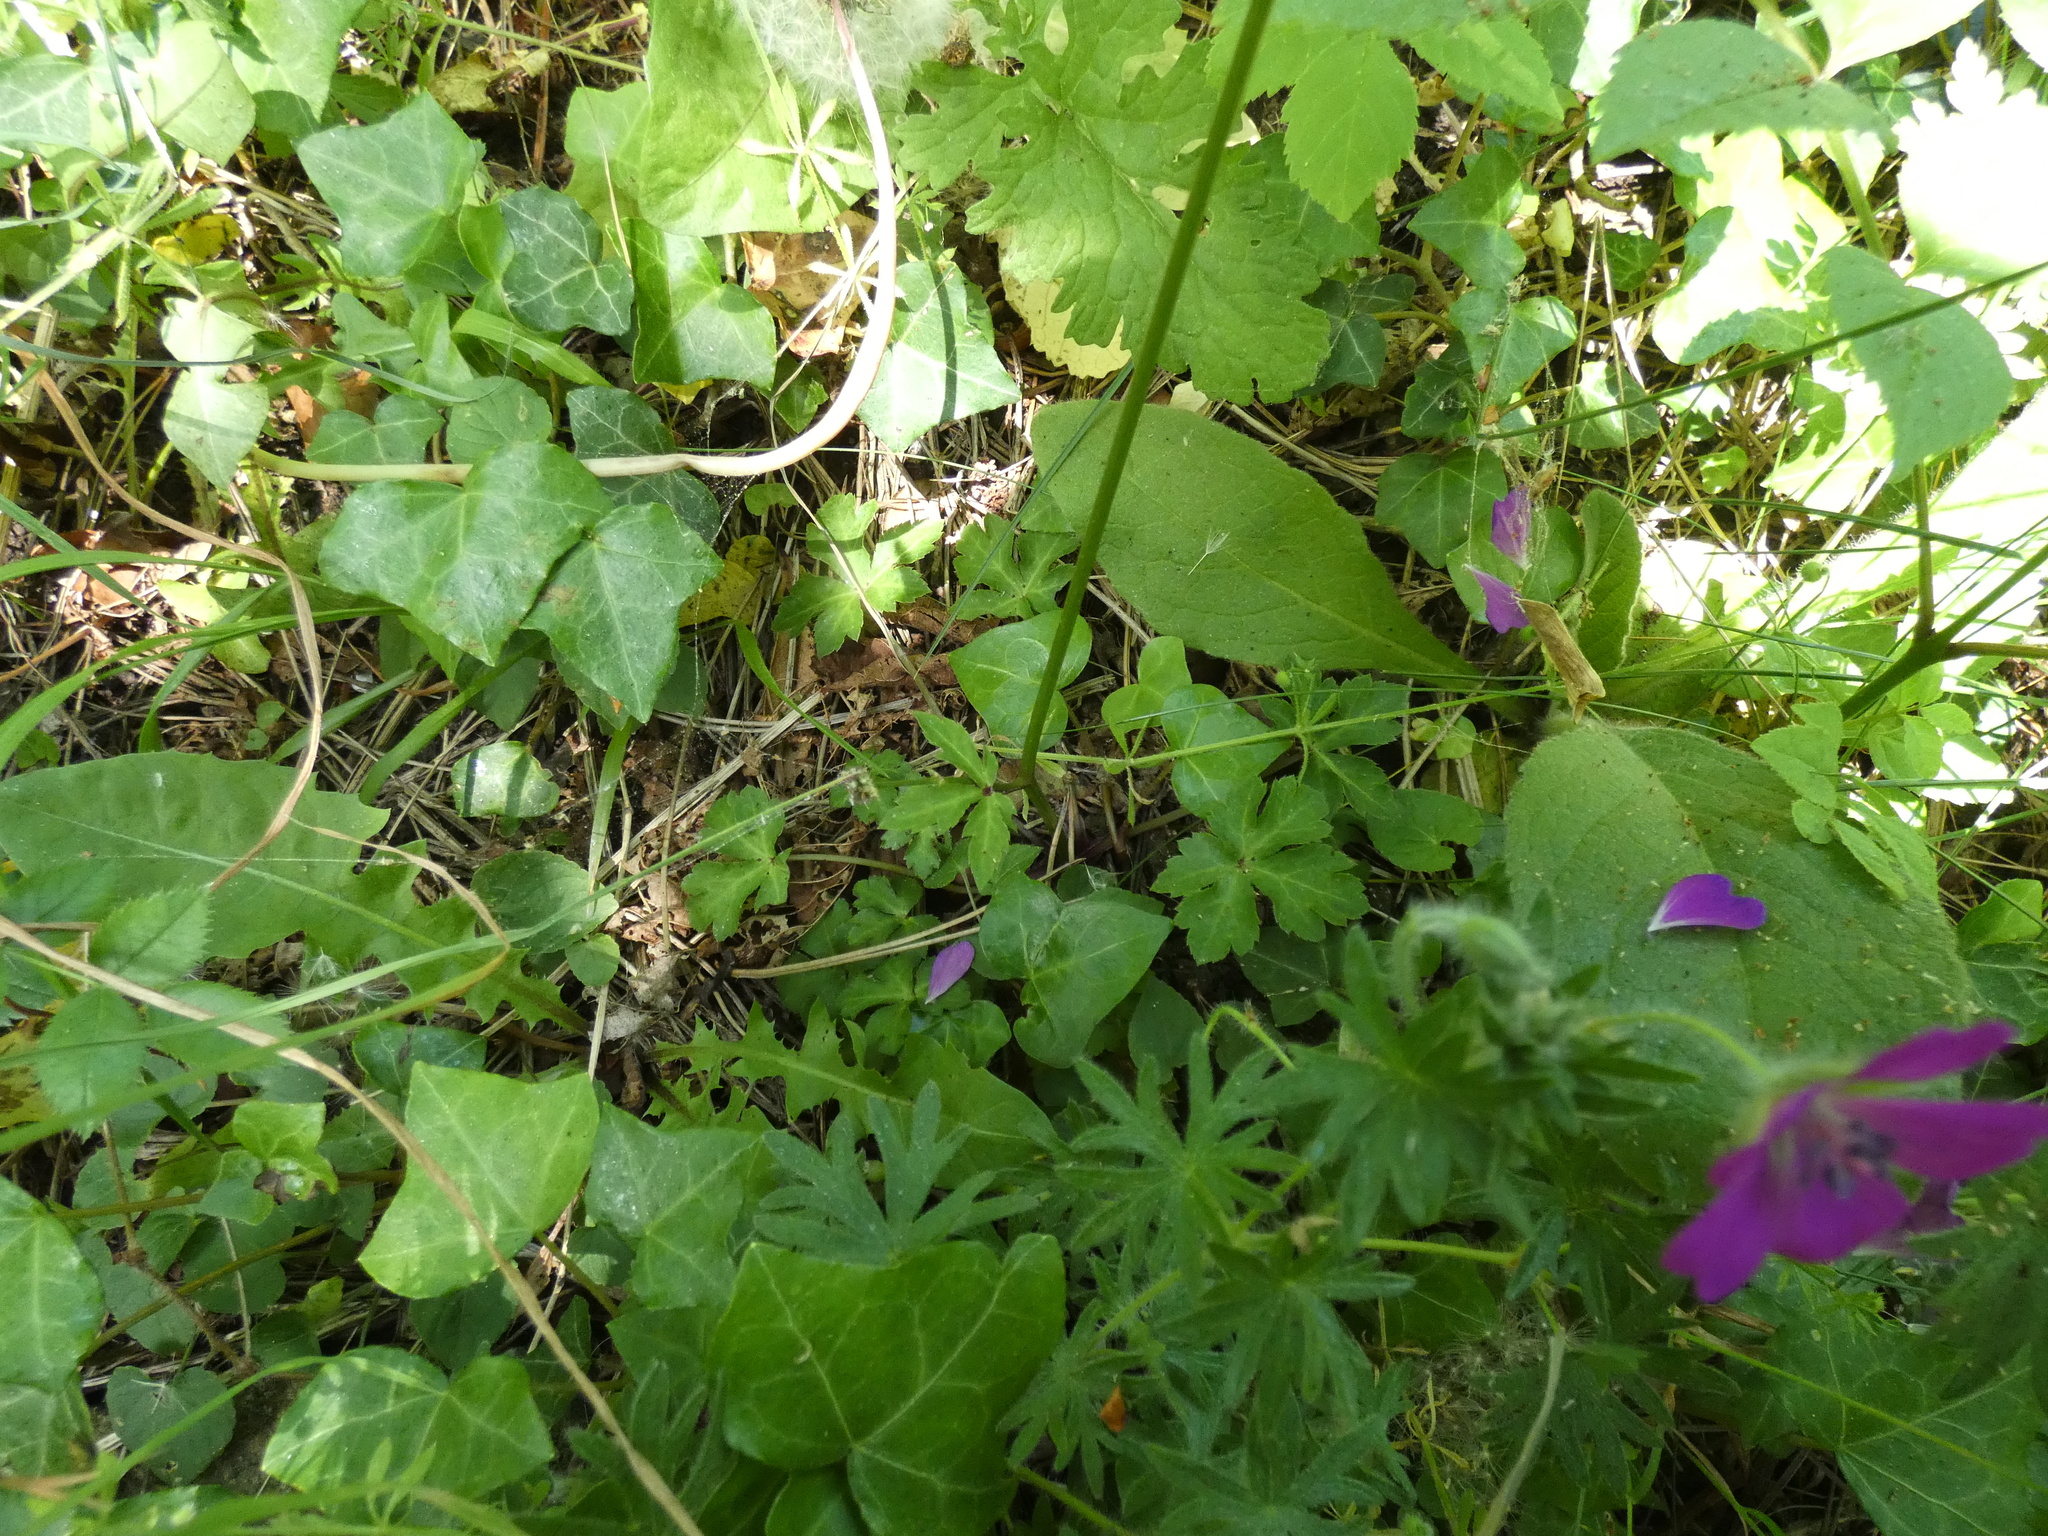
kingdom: Plantae
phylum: Tracheophyta
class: Magnoliopsida
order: Apiales
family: Apiaceae
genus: Sanicula
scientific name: Sanicula europaea
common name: Sanicle
